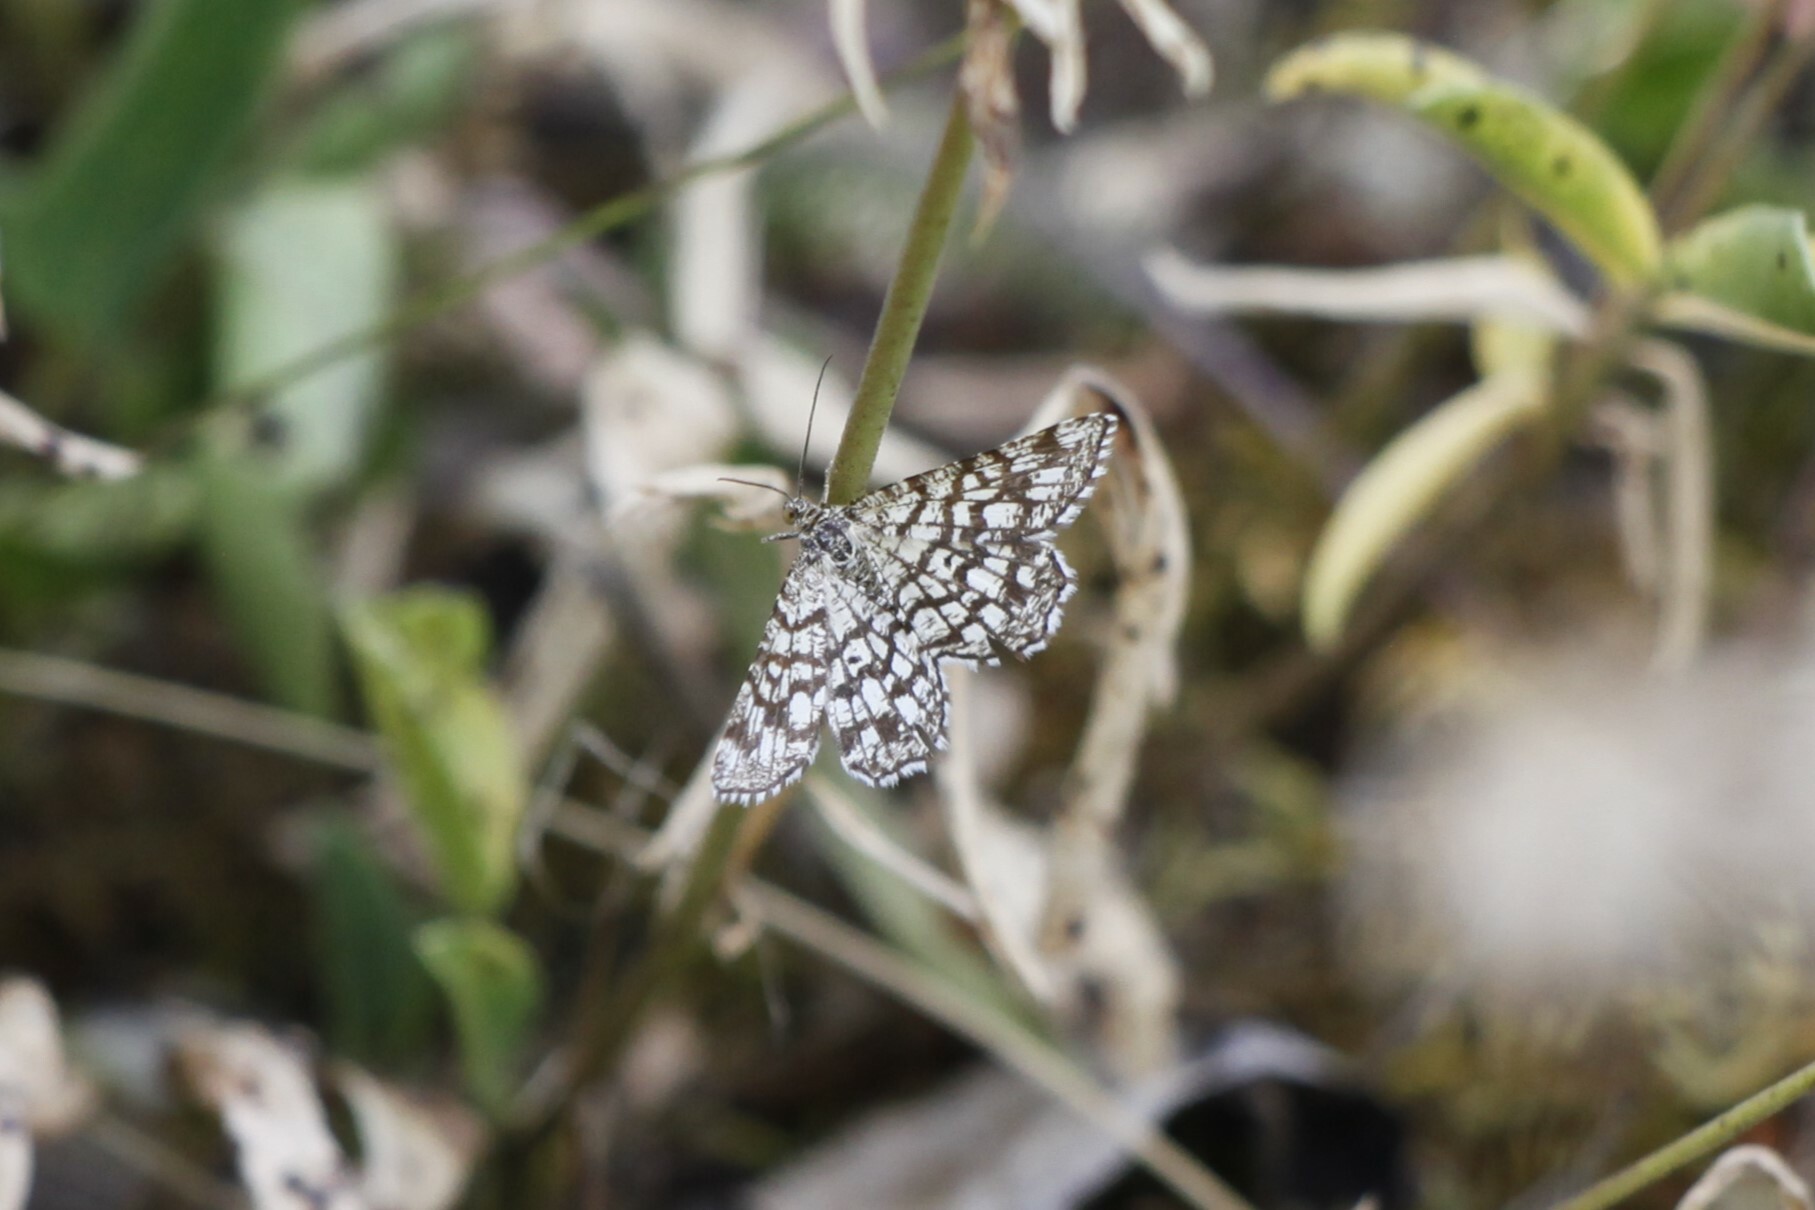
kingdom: Animalia
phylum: Arthropoda
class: Insecta
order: Lepidoptera
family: Geometridae
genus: Chiasmia
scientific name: Chiasmia clathrata
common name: Latticed heath
